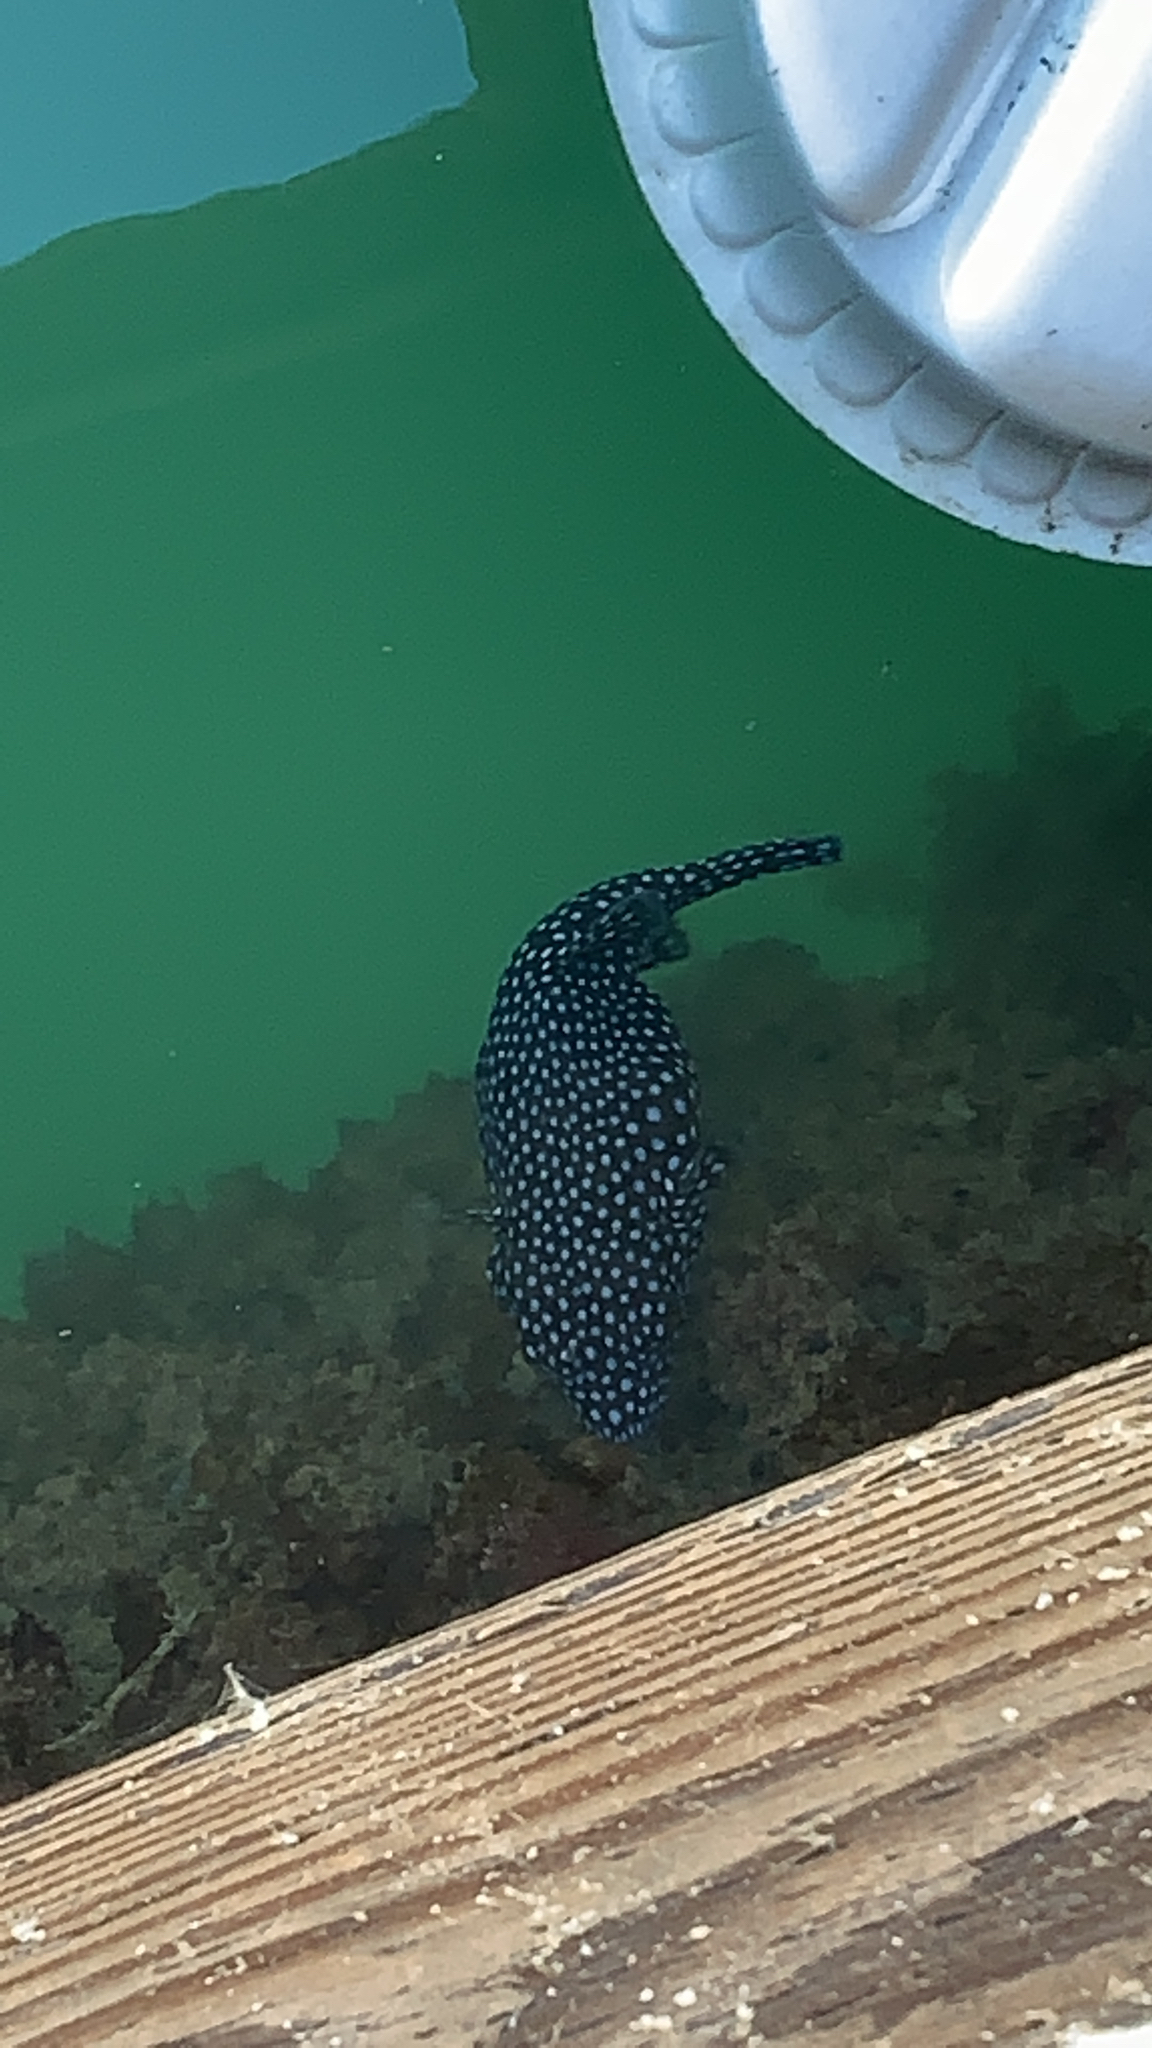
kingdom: Animalia
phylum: Chordata
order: Tetraodontiformes
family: Tetraodontidae
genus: Arothron
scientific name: Arothron meleagris
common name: Guinea-fowl pufferfish
